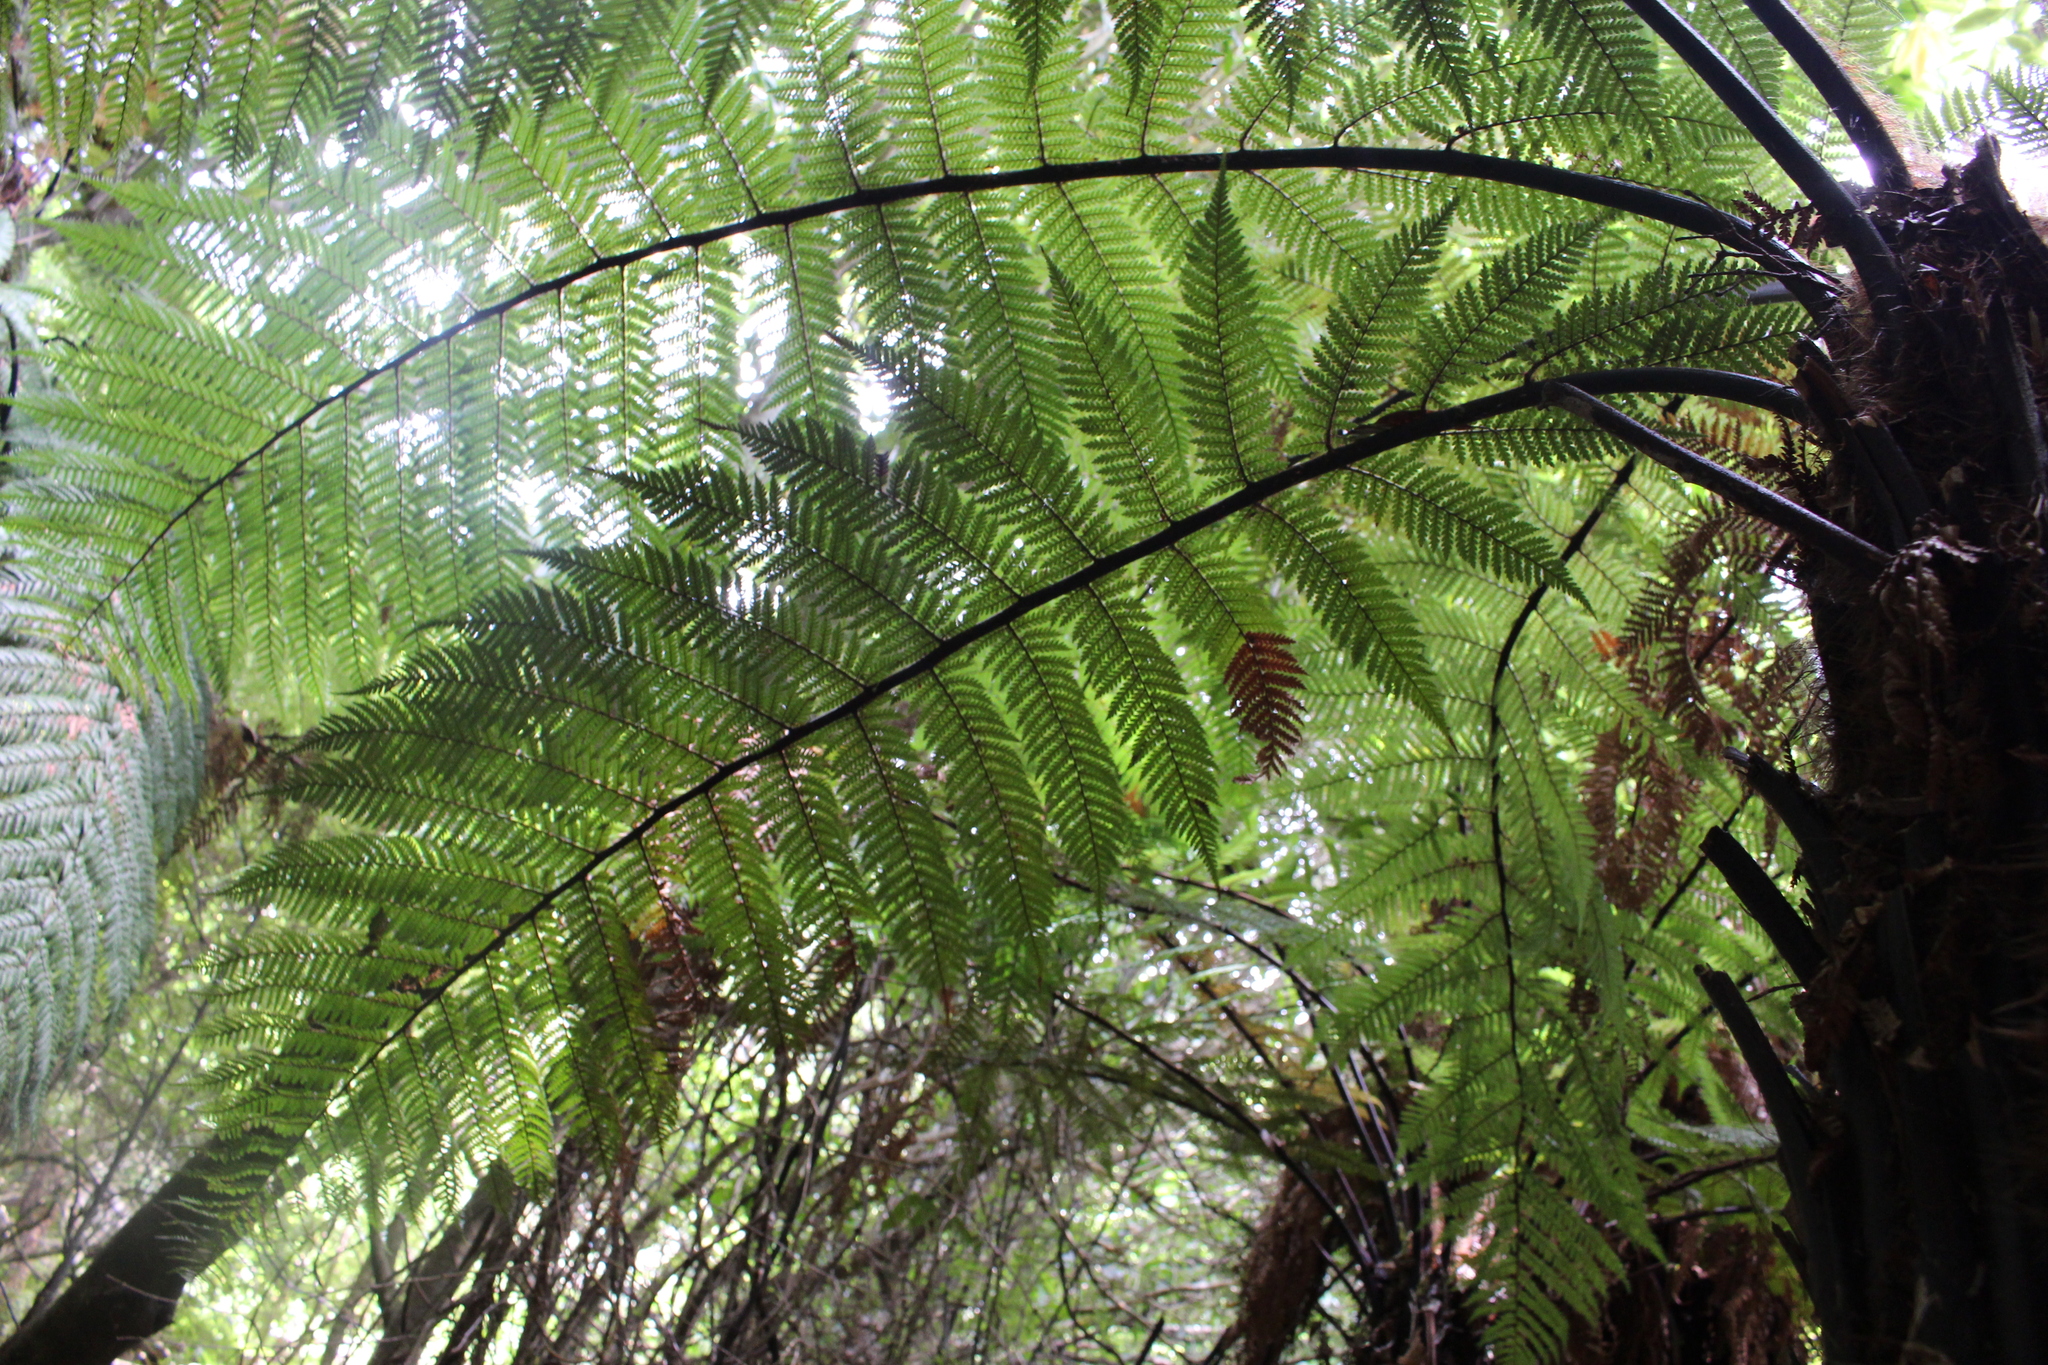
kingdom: Plantae
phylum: Tracheophyta
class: Polypodiopsida
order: Cyatheales
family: Dicksoniaceae
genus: Dicksonia
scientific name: Dicksonia squarrosa
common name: Hard treefern
